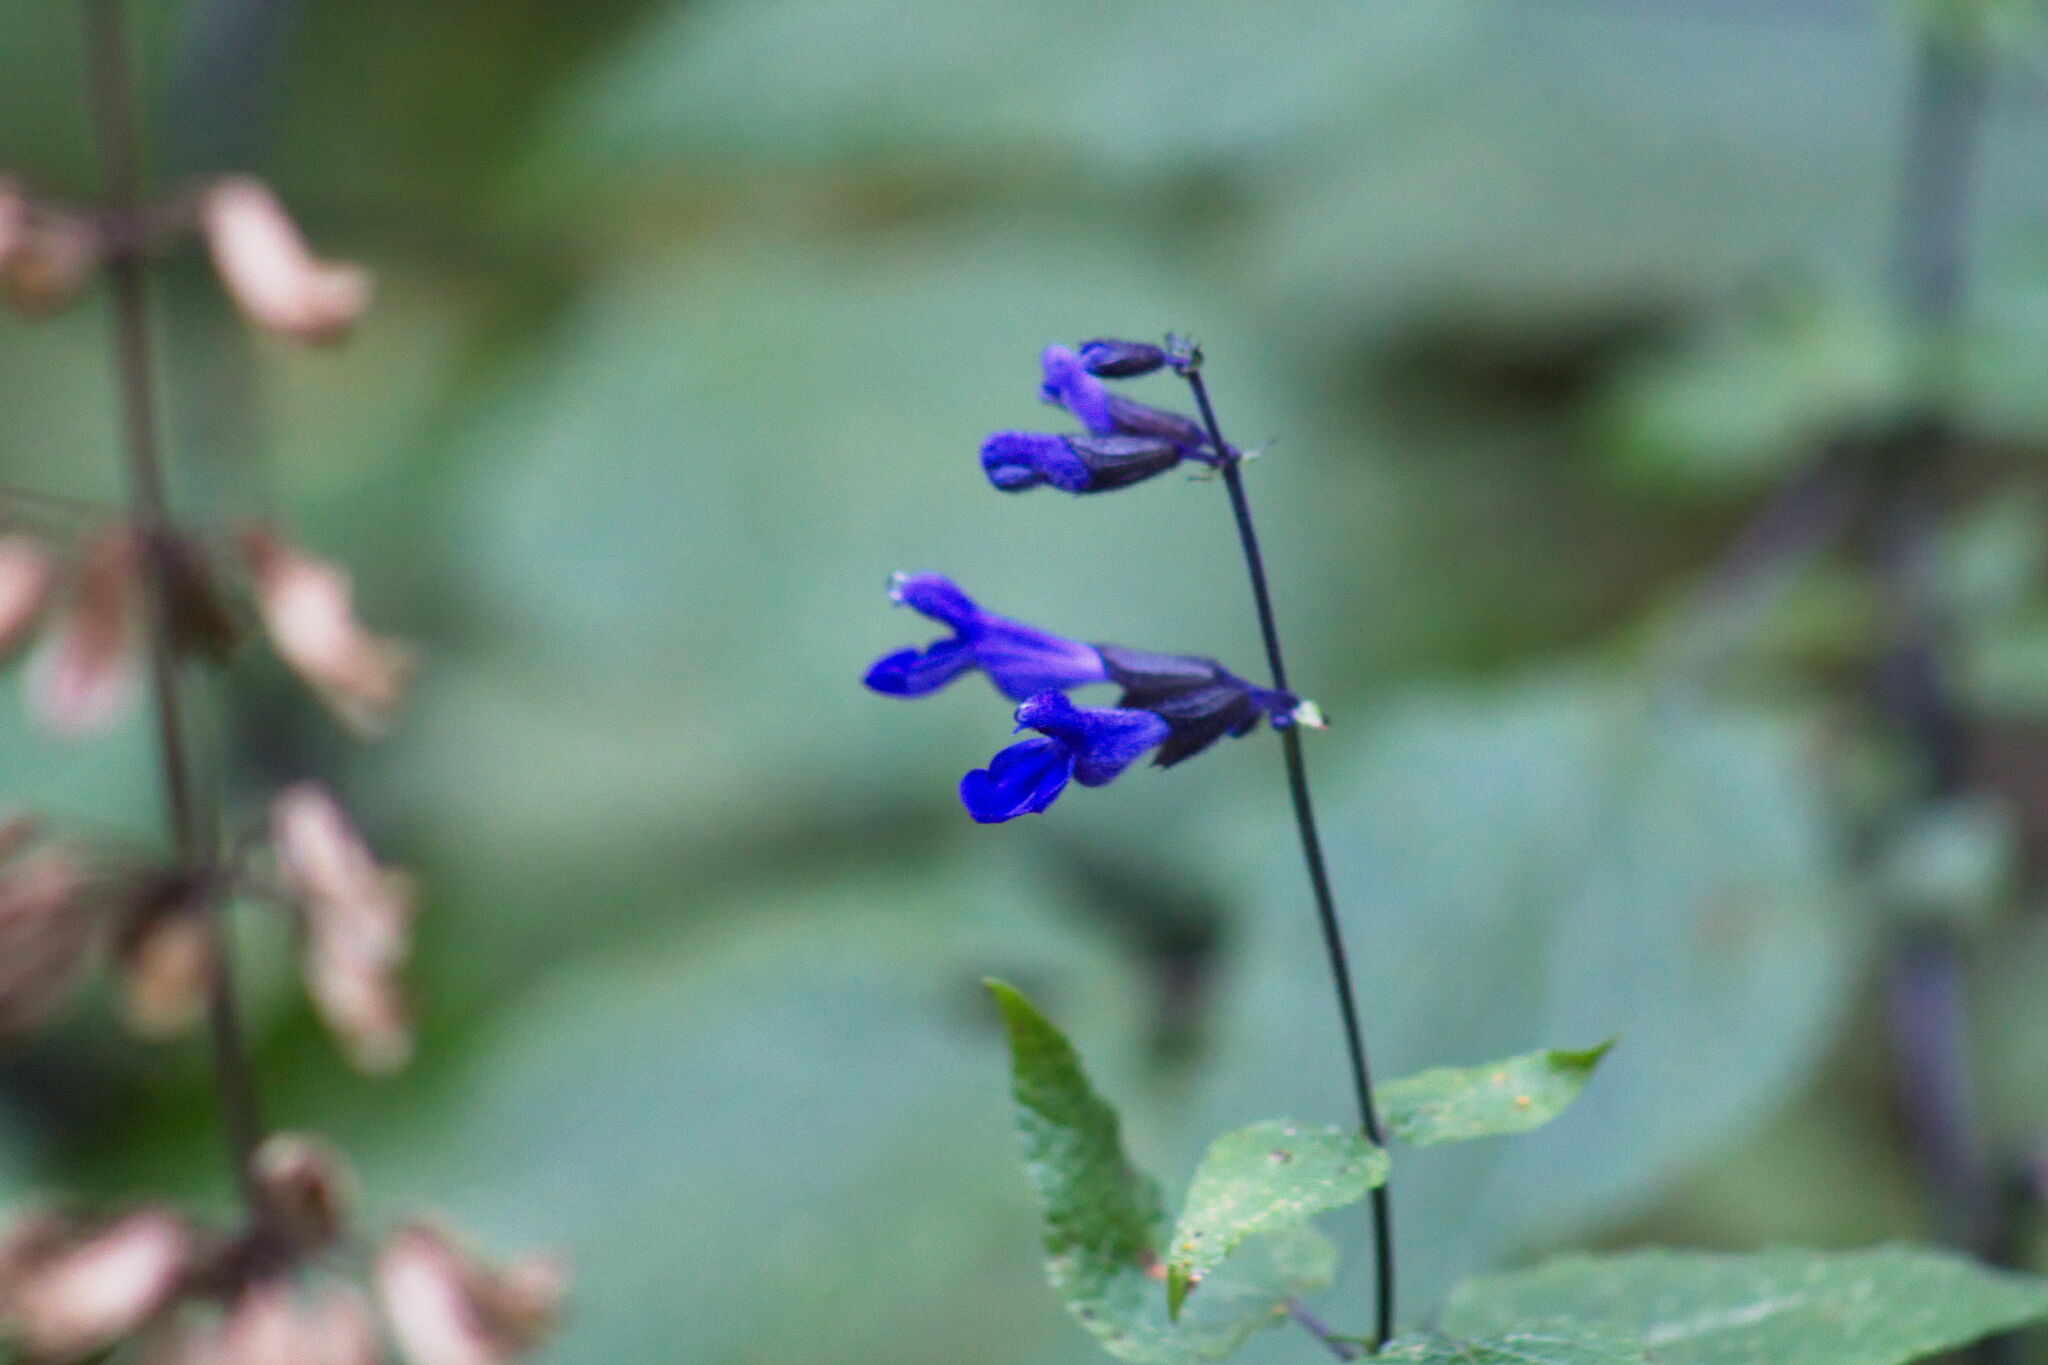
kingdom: Plantae
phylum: Tracheophyta
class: Magnoliopsida
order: Lamiales
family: Lamiaceae
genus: Salvia
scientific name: Salvia concolor
